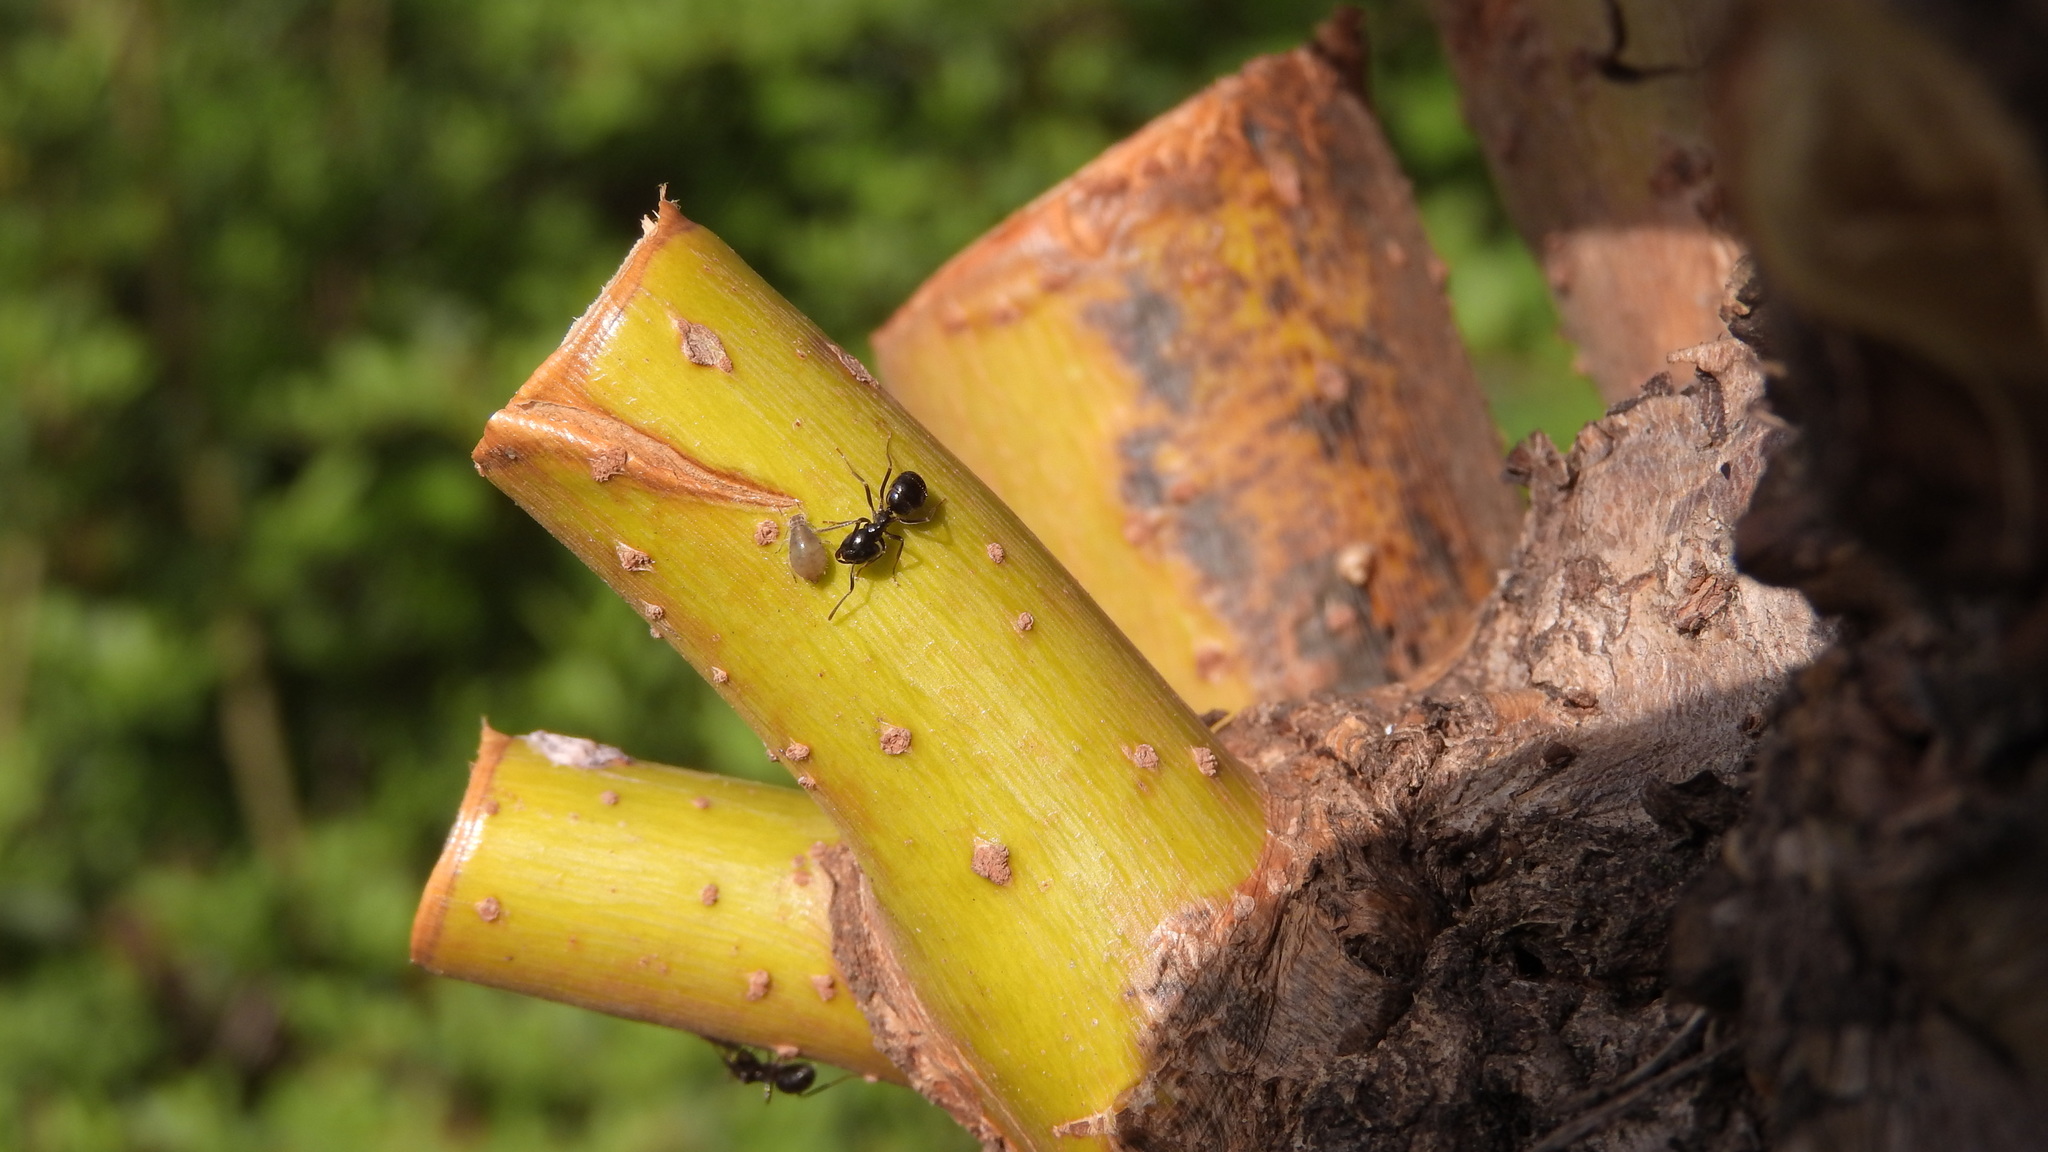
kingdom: Animalia
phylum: Arthropoda
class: Insecta
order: Hymenoptera
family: Formicidae
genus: Lasius
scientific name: Lasius fuliginosus
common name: Jet ant
